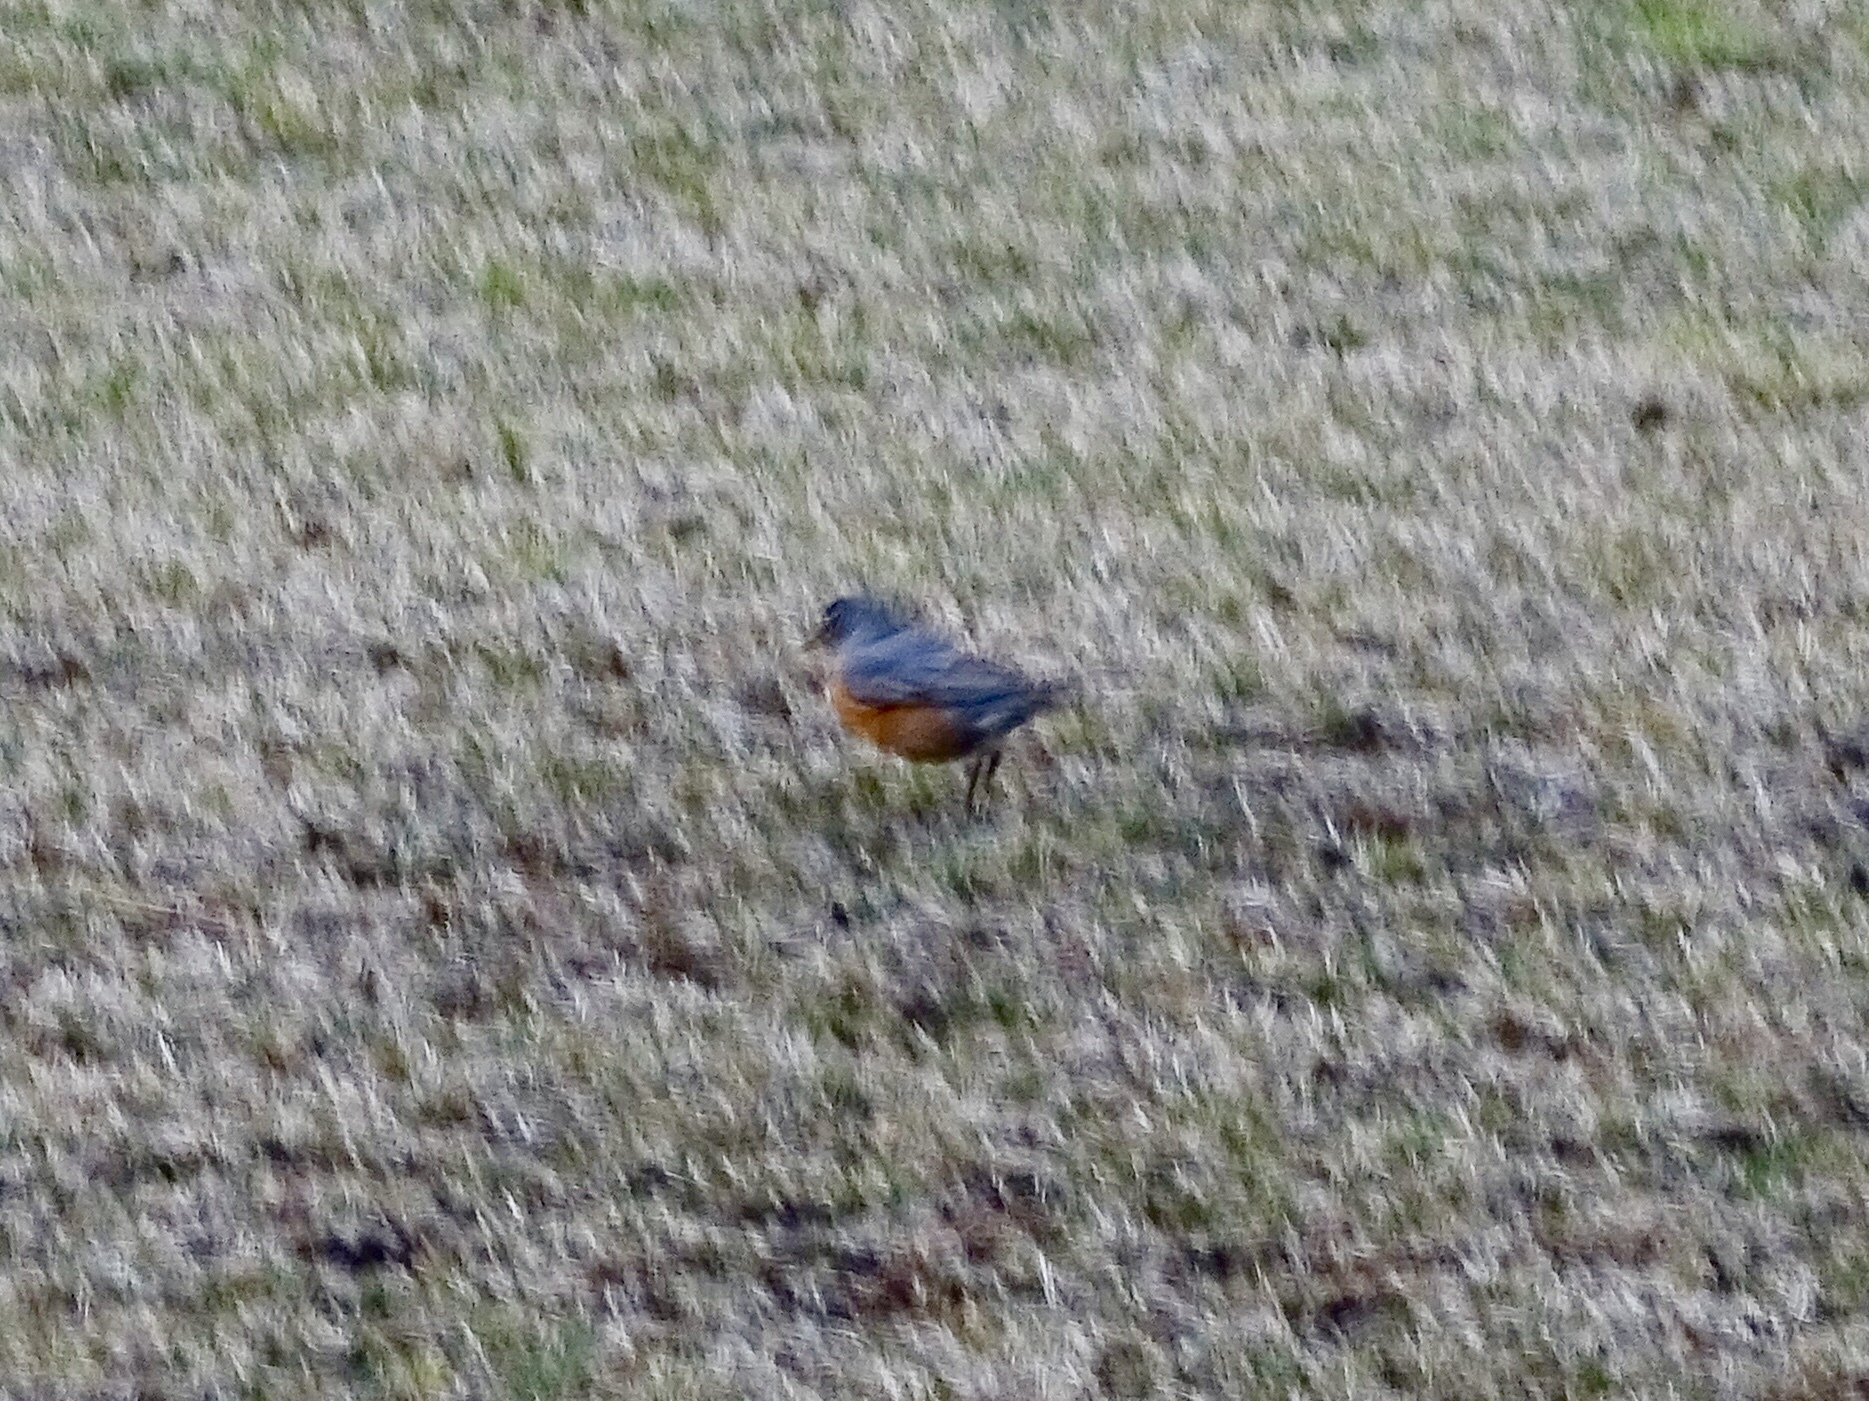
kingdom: Animalia
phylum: Chordata
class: Aves
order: Passeriformes
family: Turdidae
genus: Turdus
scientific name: Turdus migratorius
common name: American robin
